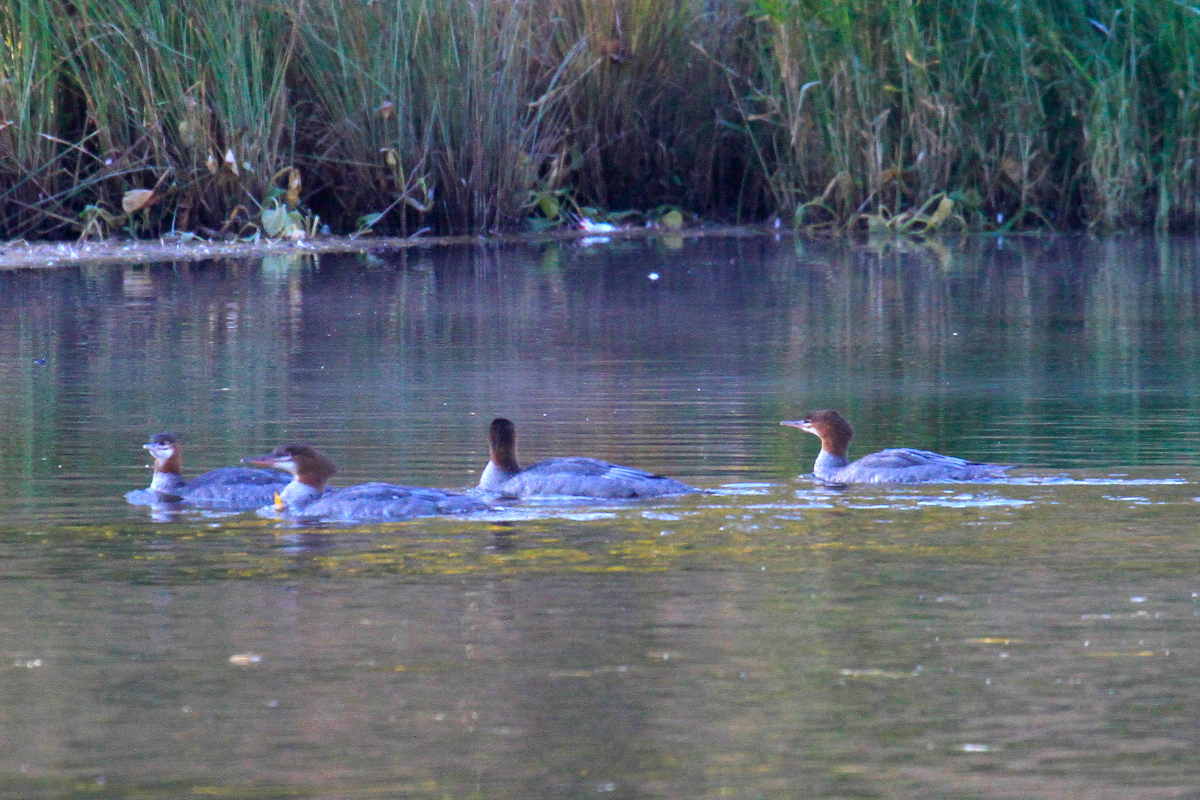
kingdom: Animalia
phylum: Chordata
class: Aves
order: Anseriformes
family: Anatidae
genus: Mergus
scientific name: Mergus merganser
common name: Common merganser
